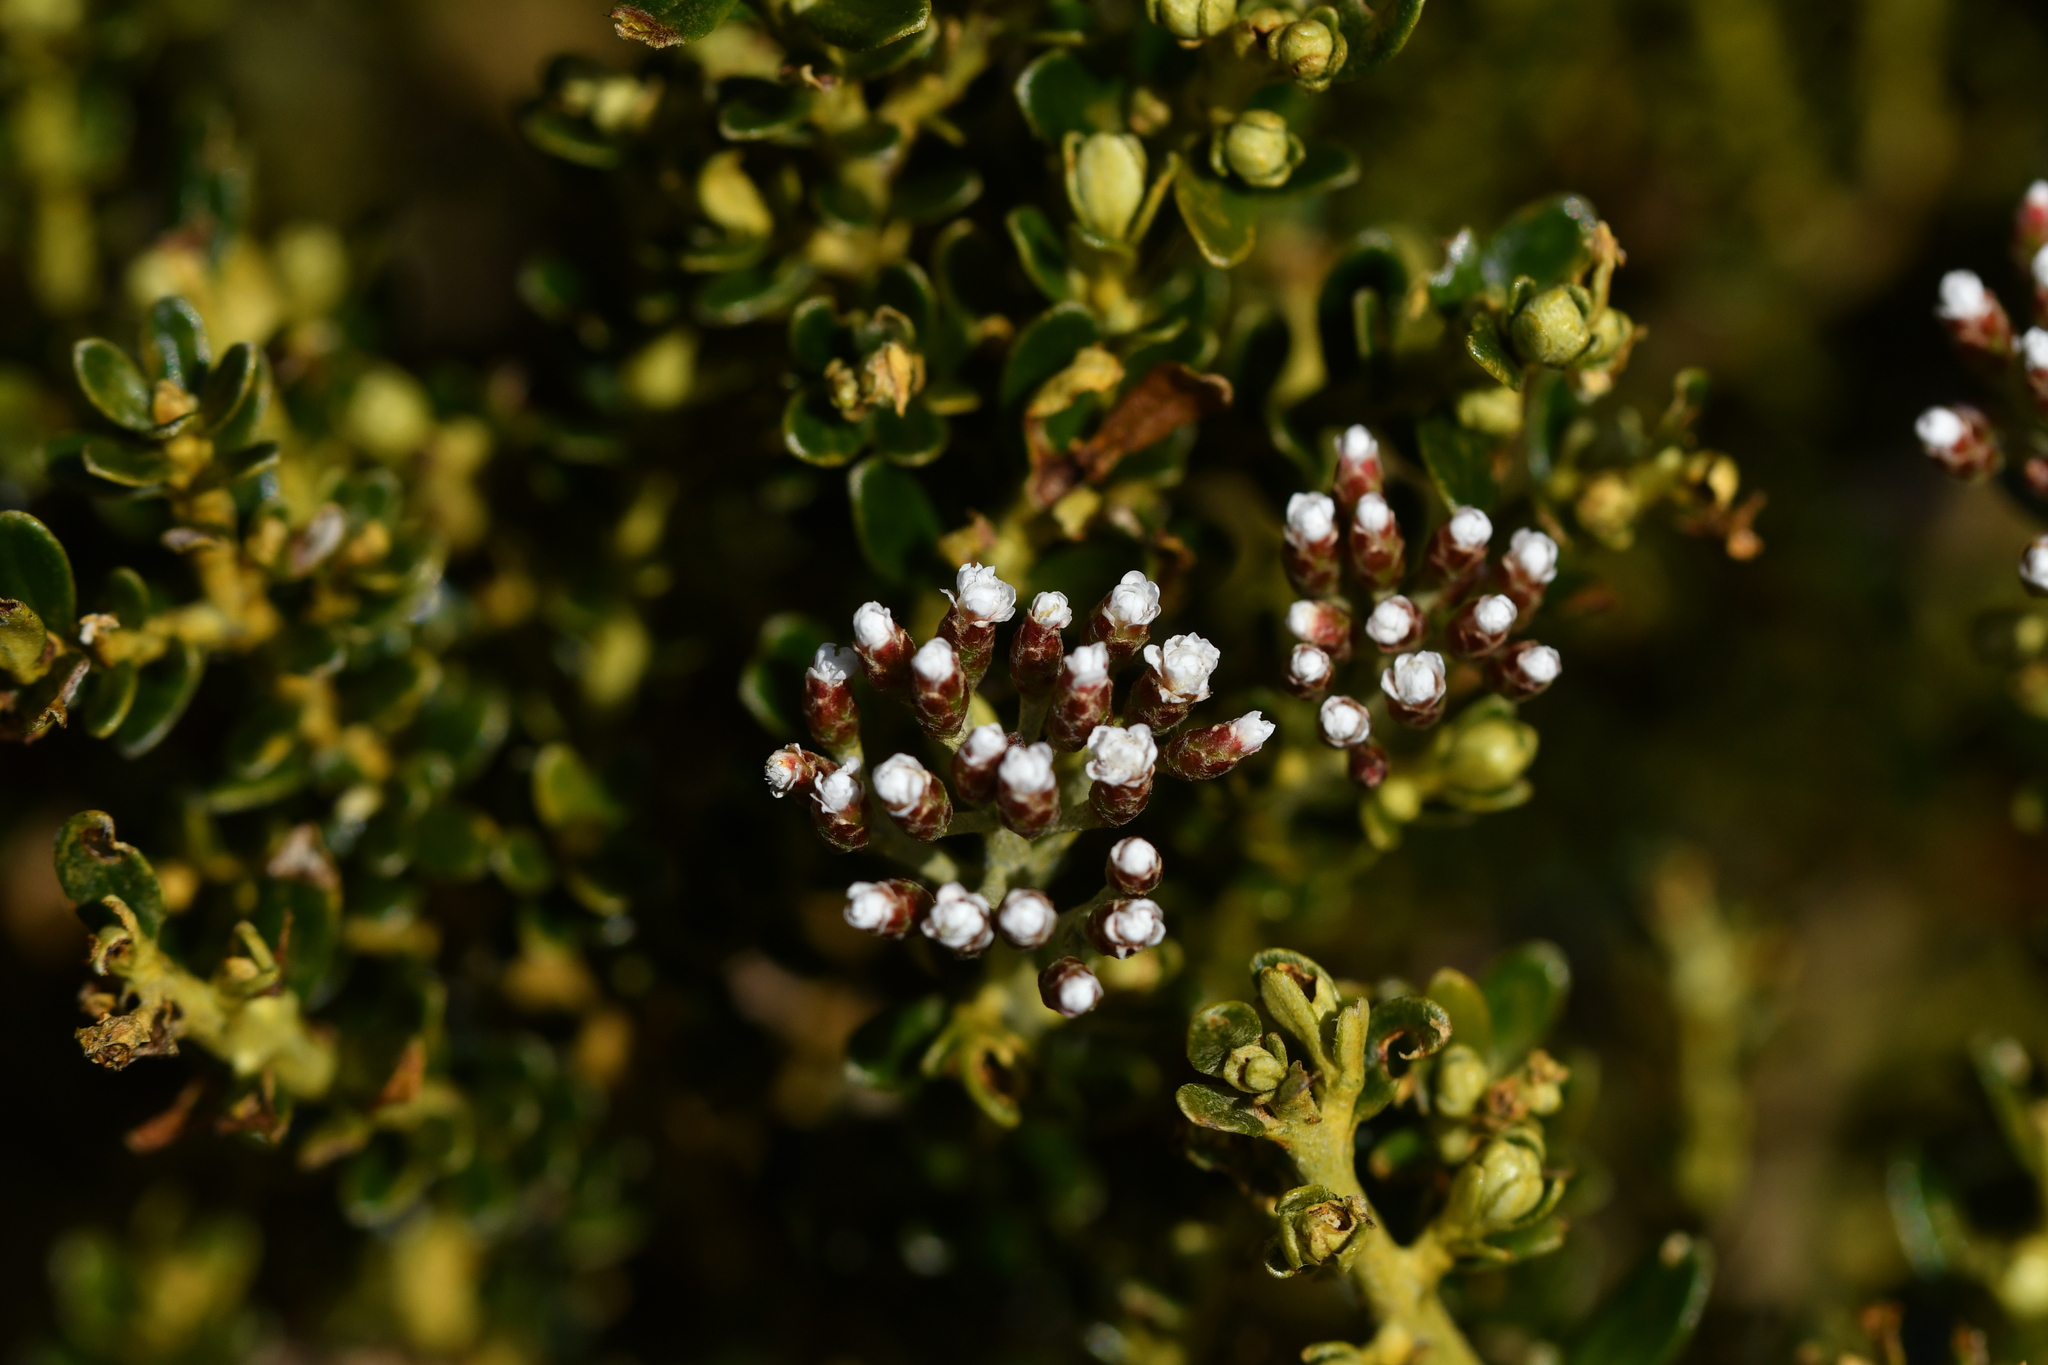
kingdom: Plantae
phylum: Tracheophyta
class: Magnoliopsida
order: Asterales
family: Asteraceae
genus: Ozothamnus
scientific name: Ozothamnus leptophyllus
